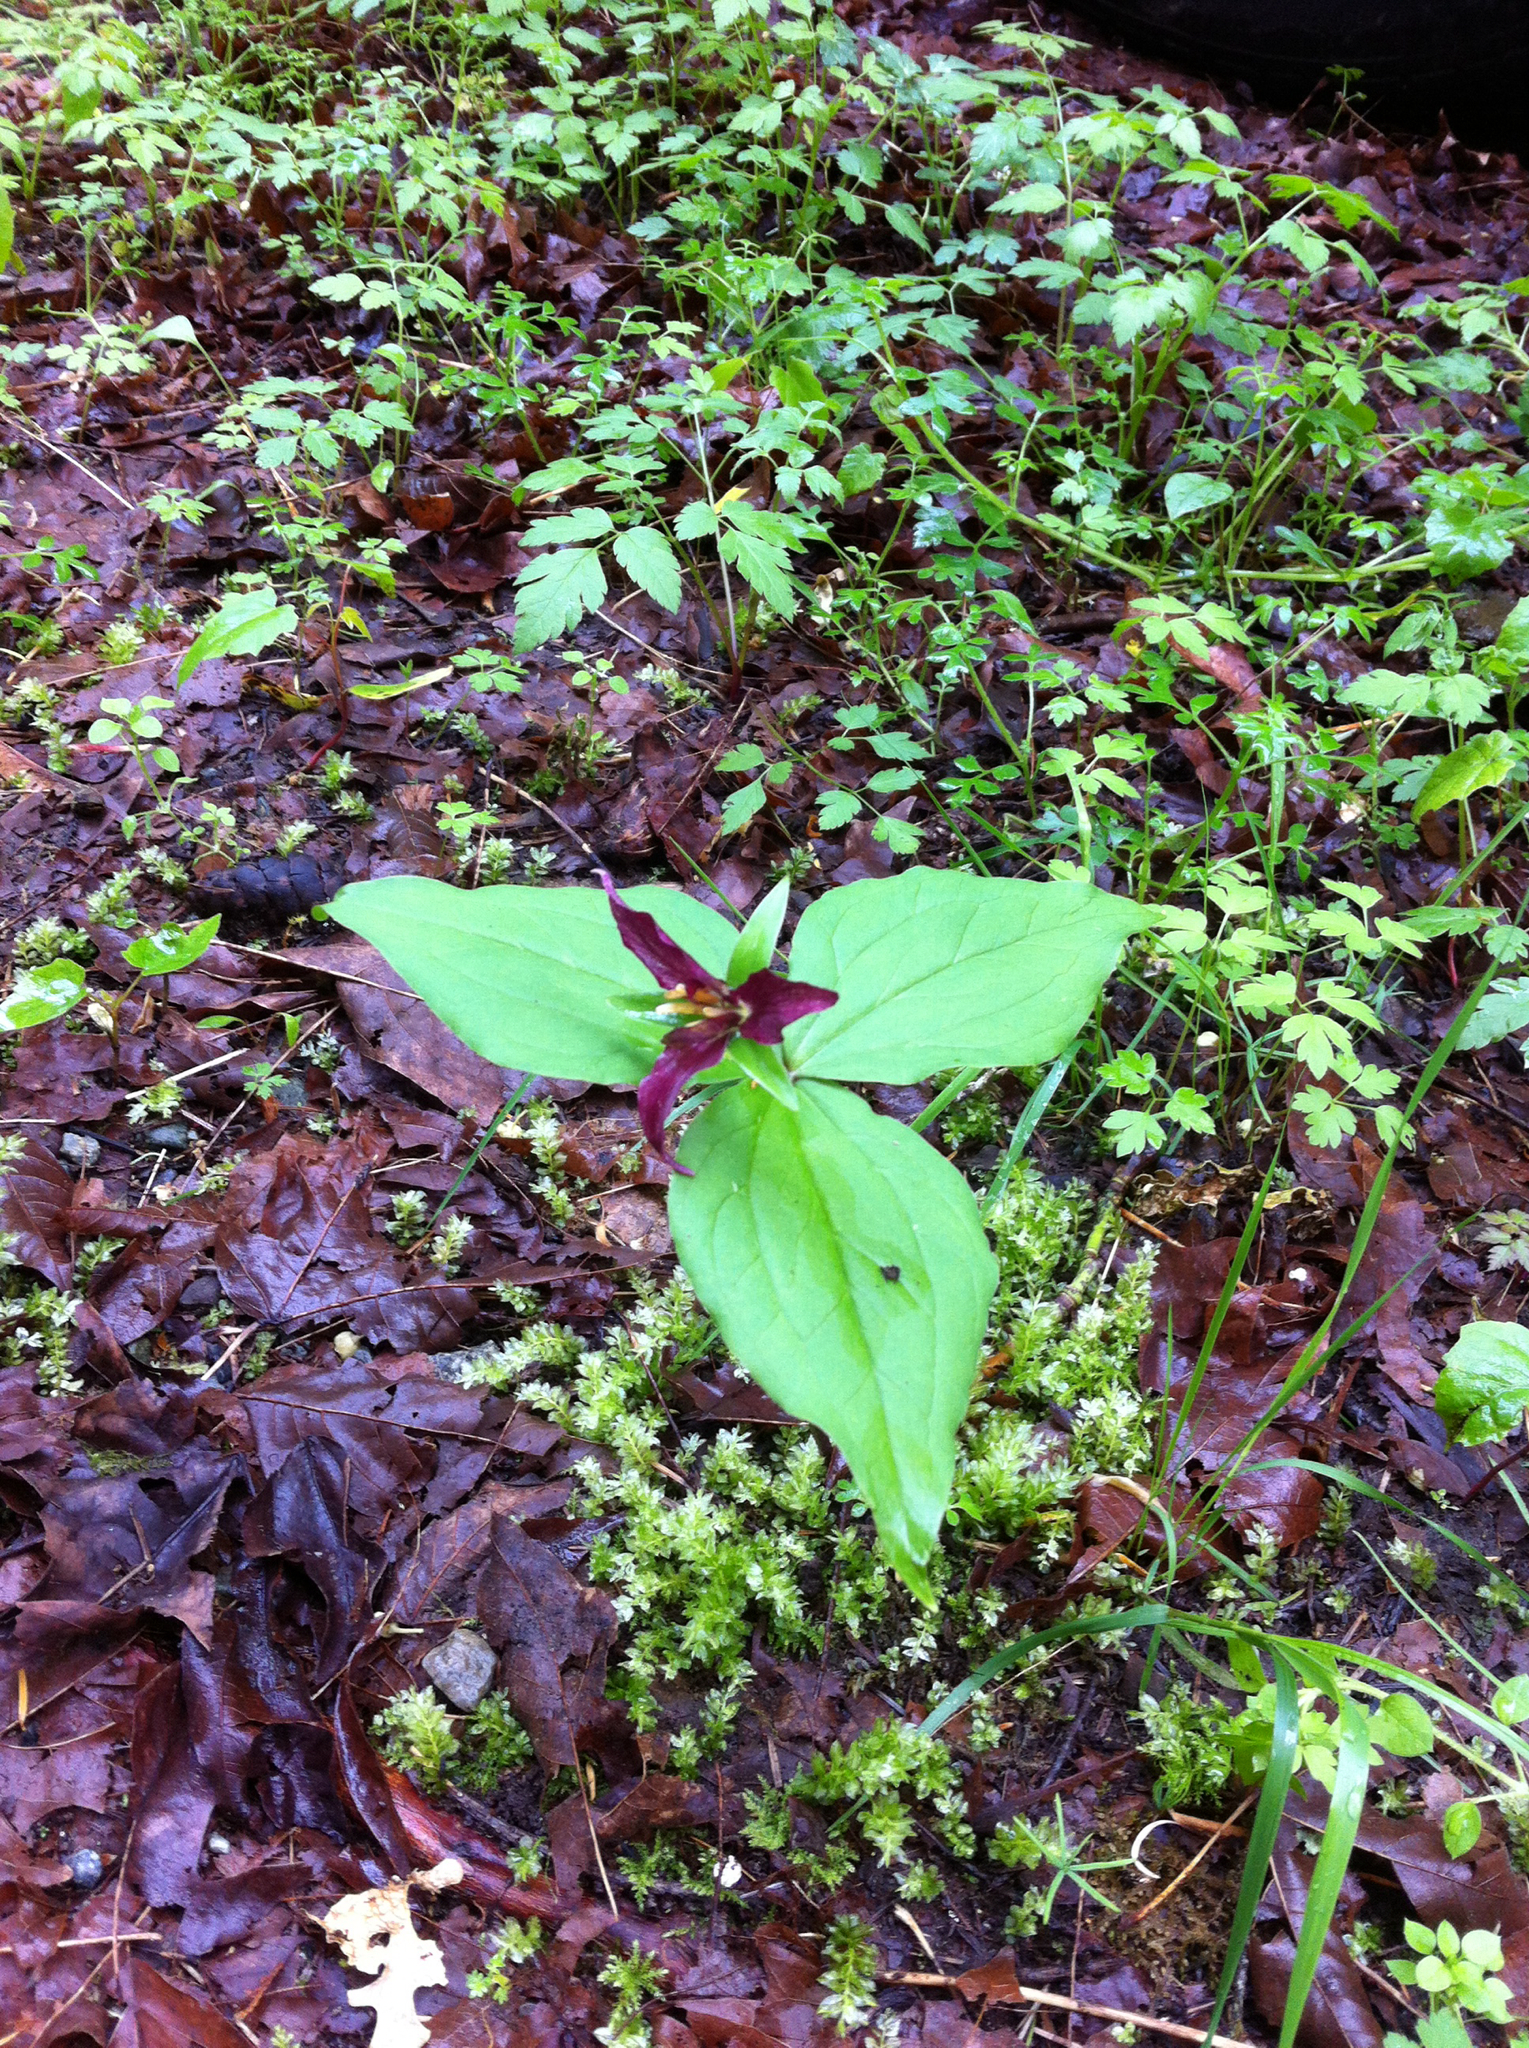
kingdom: Plantae
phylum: Tracheophyta
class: Liliopsida
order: Liliales
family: Melanthiaceae
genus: Trillium
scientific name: Trillium ovatum
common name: Pacific trillium
